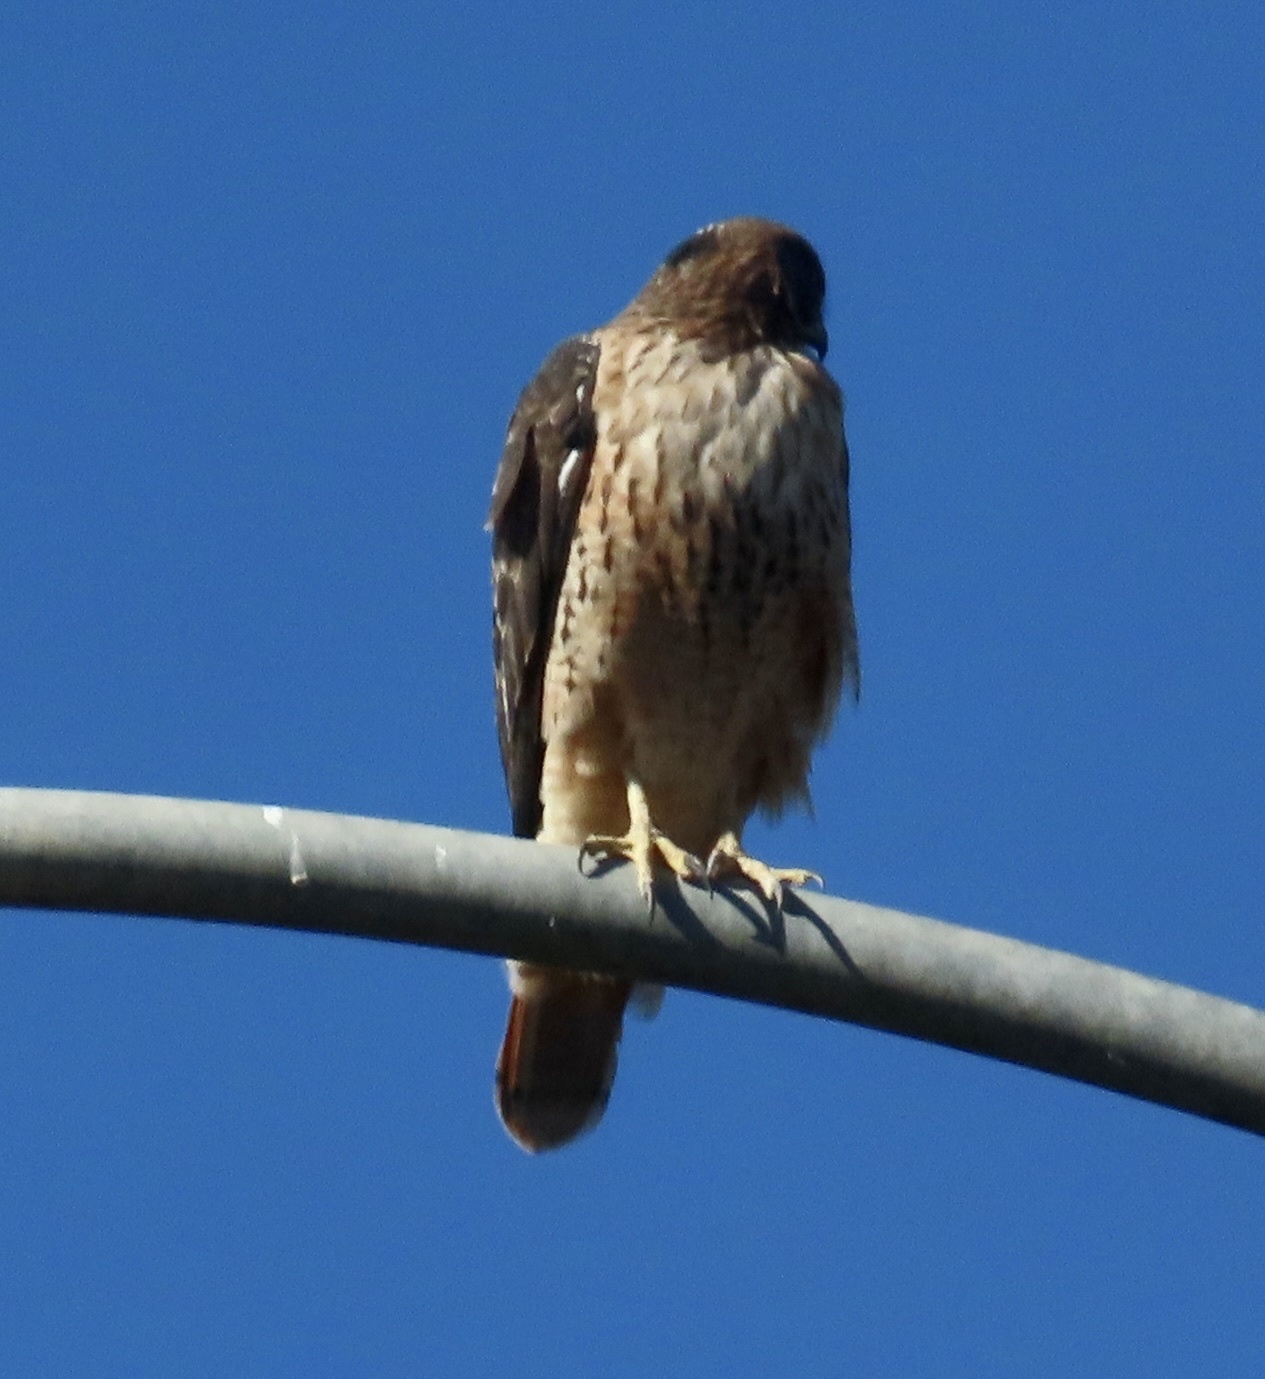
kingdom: Animalia
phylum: Chordata
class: Aves
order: Accipitriformes
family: Accipitridae
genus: Buteo
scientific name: Buteo jamaicensis
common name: Red-tailed hawk
